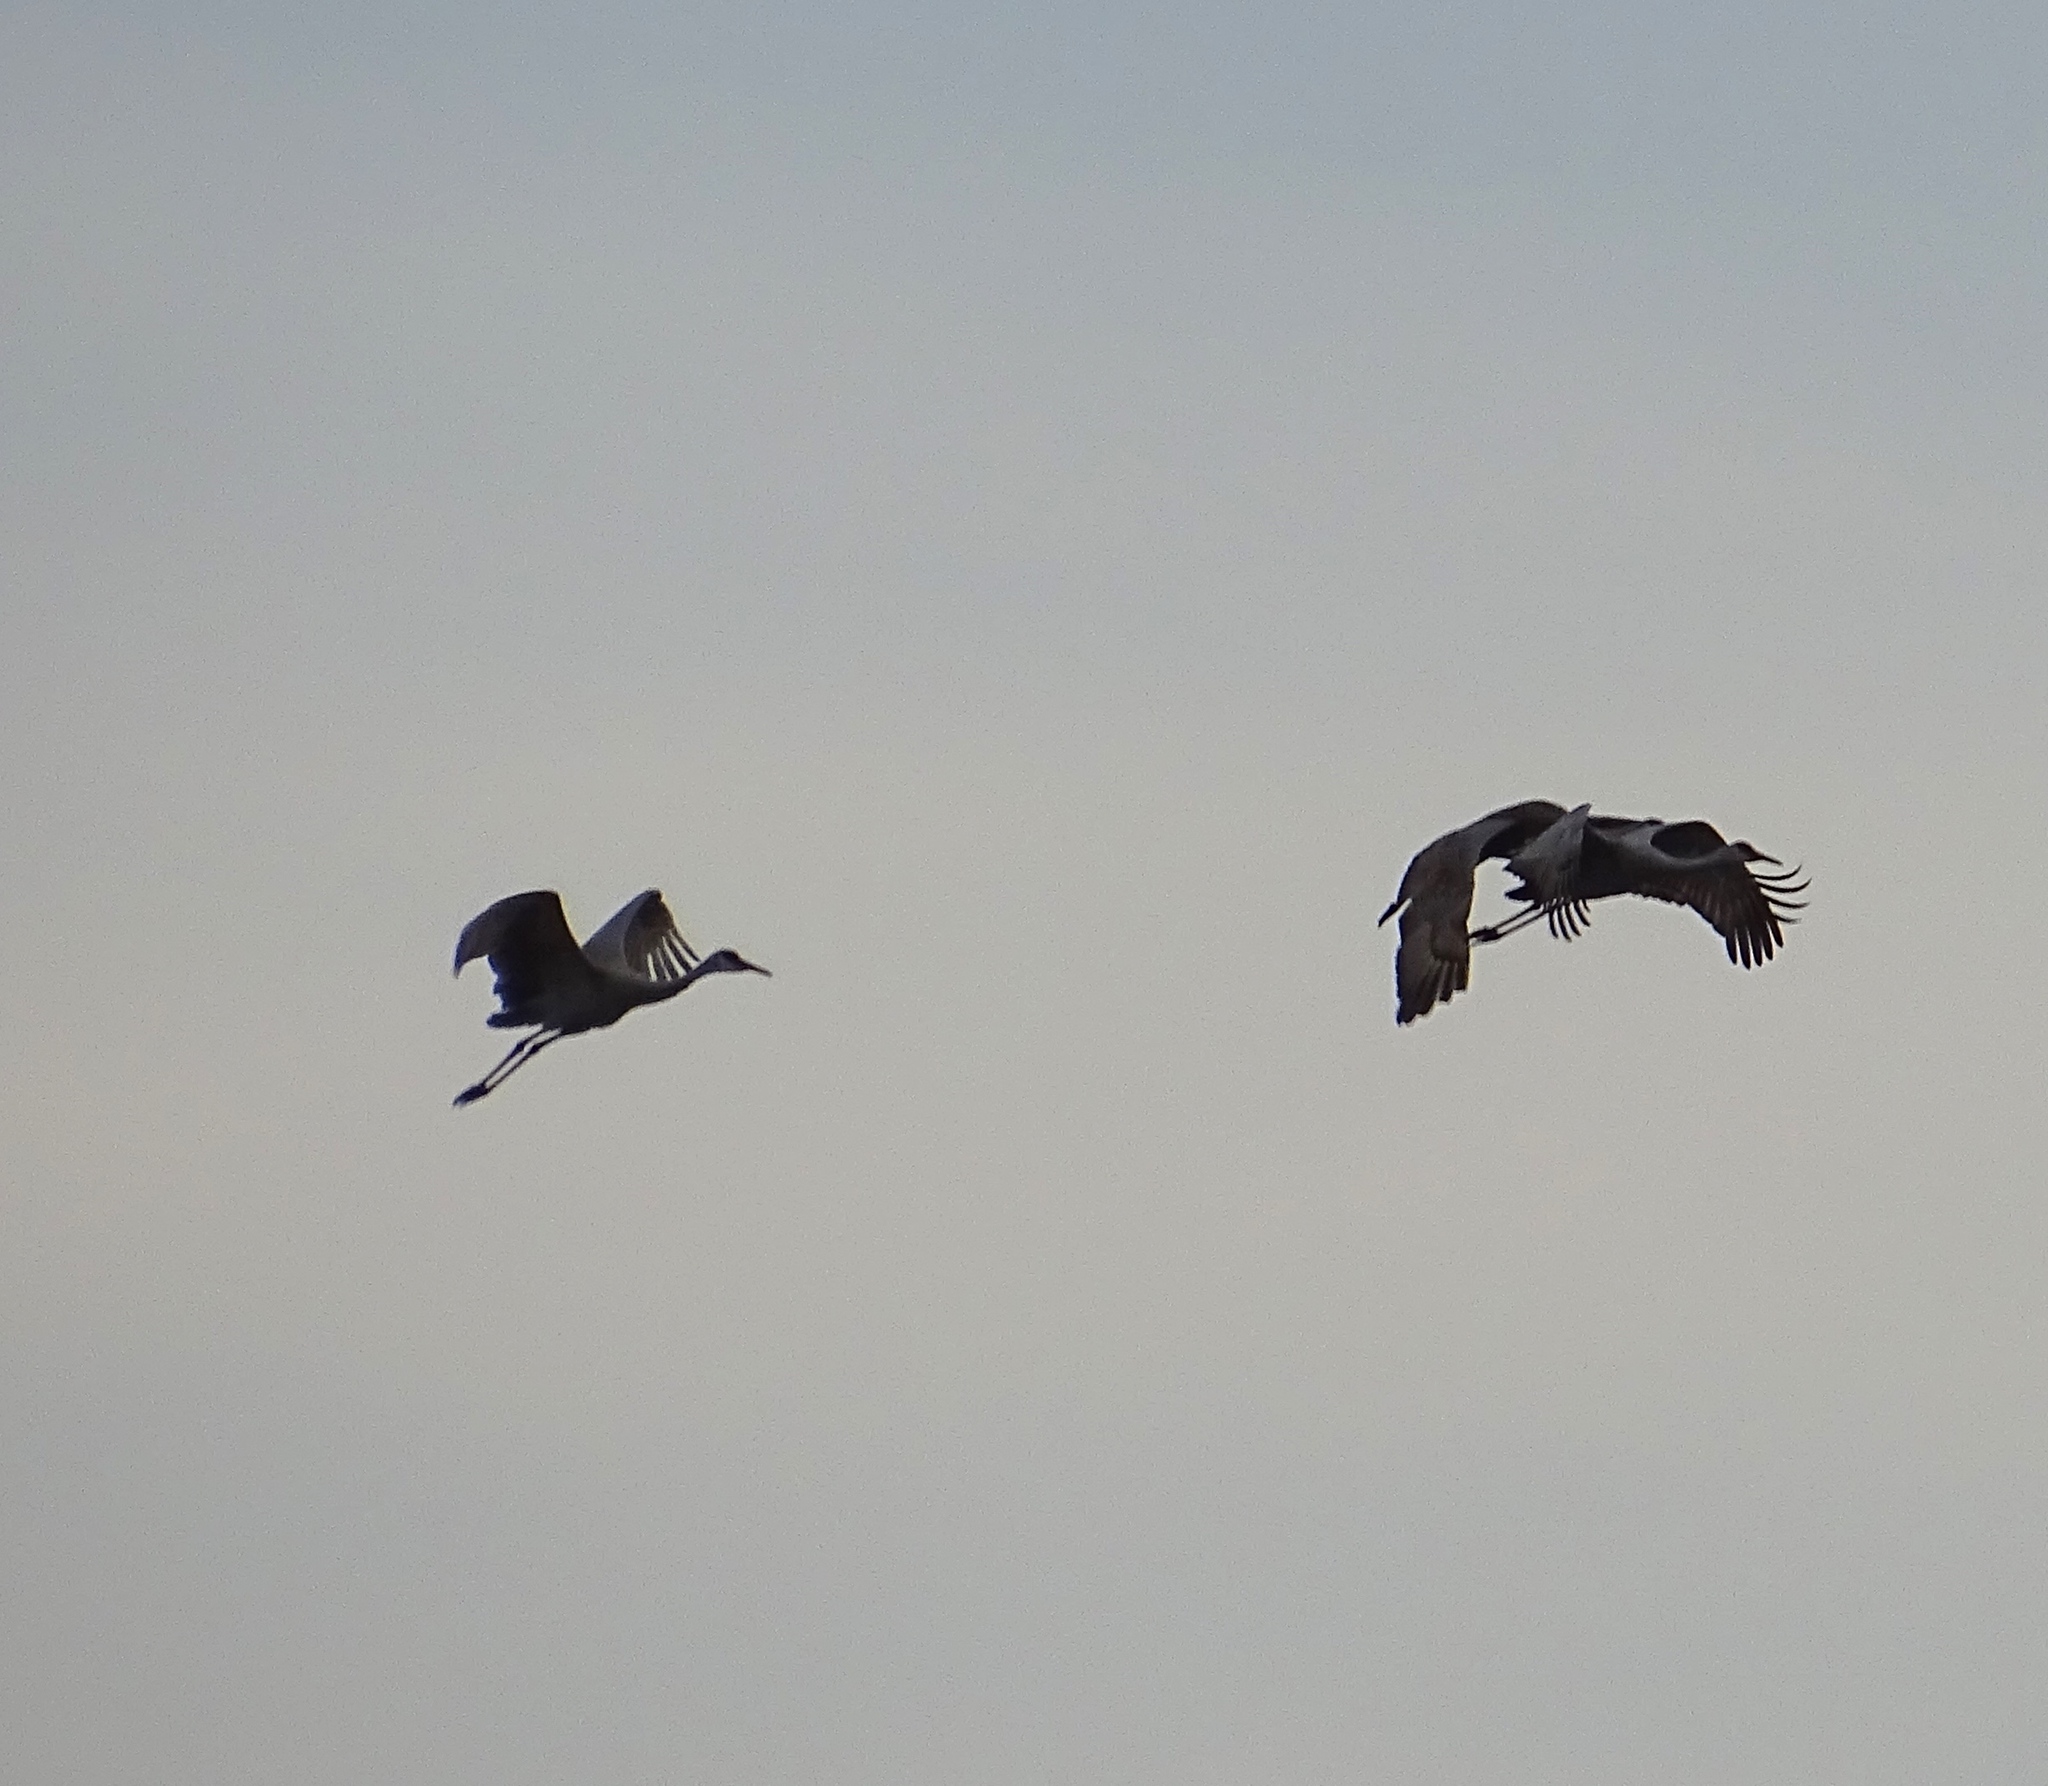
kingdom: Animalia
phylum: Chordata
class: Aves
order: Gruiformes
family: Gruidae
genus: Grus
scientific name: Grus canadensis
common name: Sandhill crane
